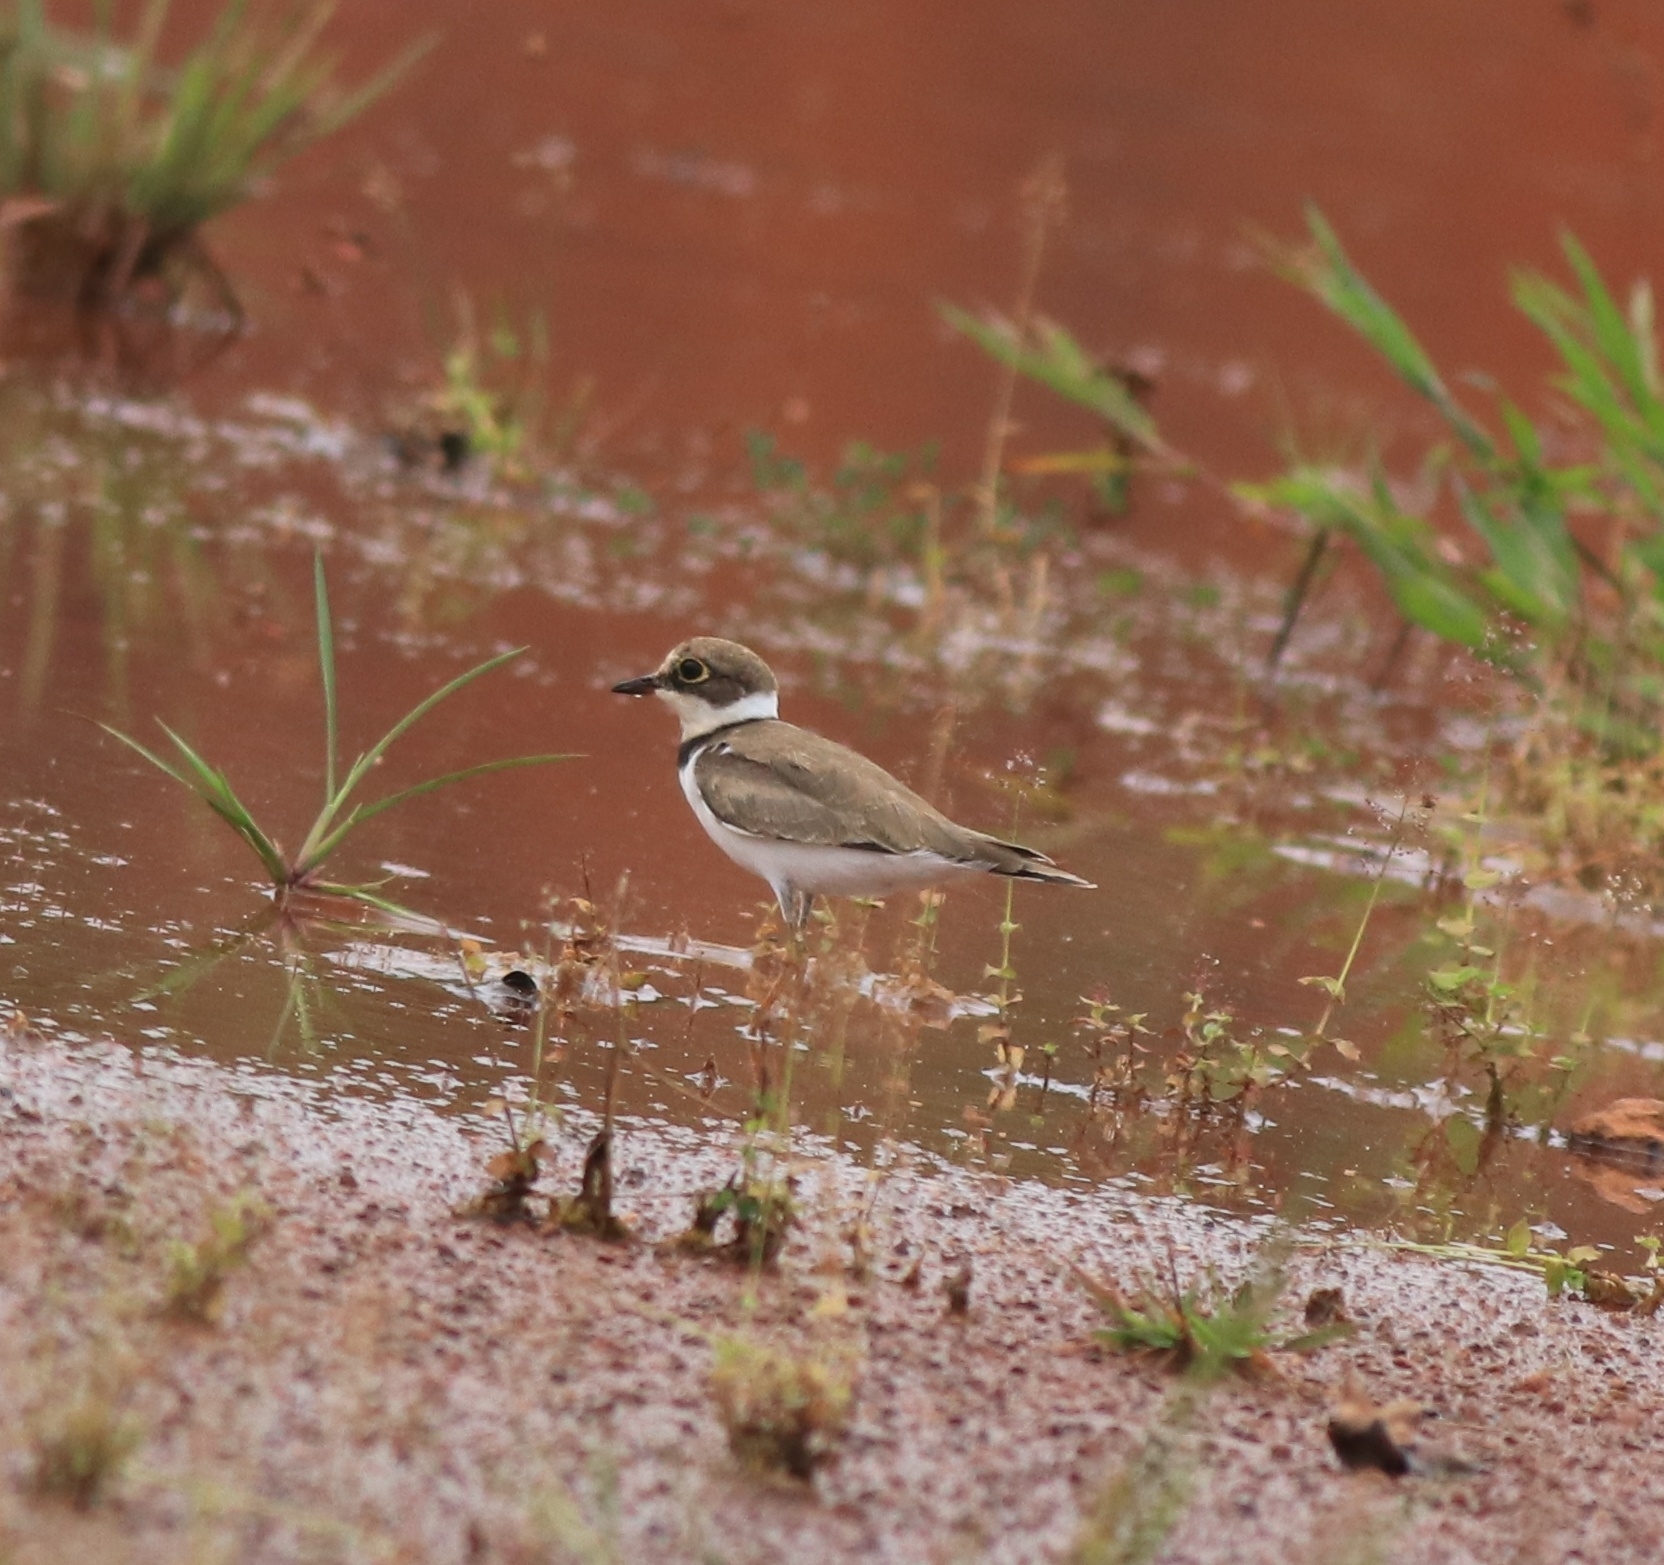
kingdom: Animalia
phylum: Chordata
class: Aves
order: Charadriiformes
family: Charadriidae
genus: Charadrius
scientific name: Charadrius dubius
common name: Little ringed plover
